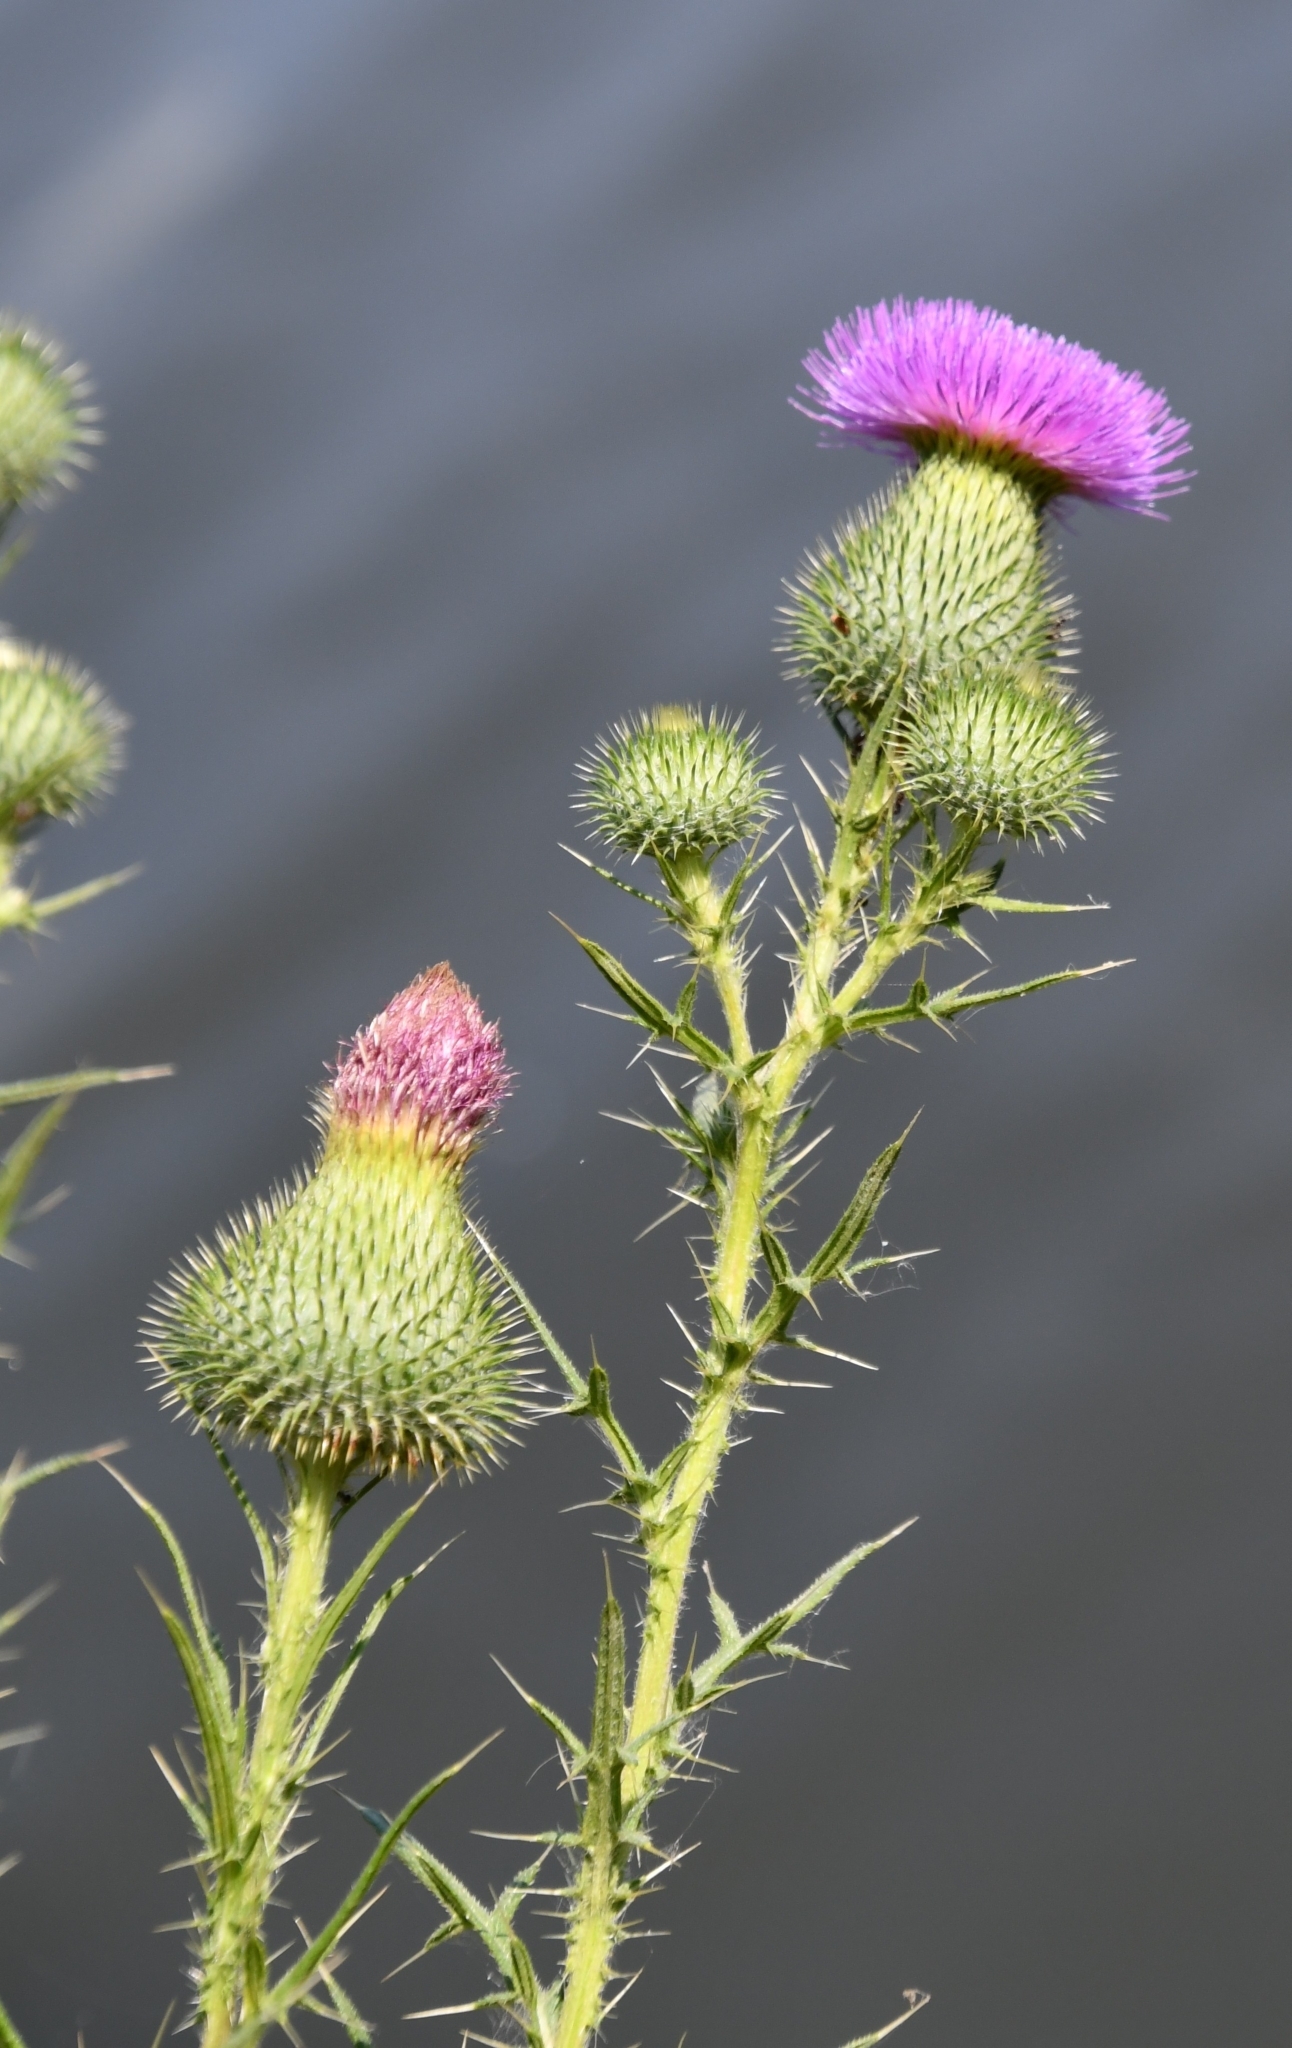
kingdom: Plantae
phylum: Tracheophyta
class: Magnoliopsida
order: Asterales
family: Asteraceae
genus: Cirsium
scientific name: Cirsium vulgare
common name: Bull thistle
